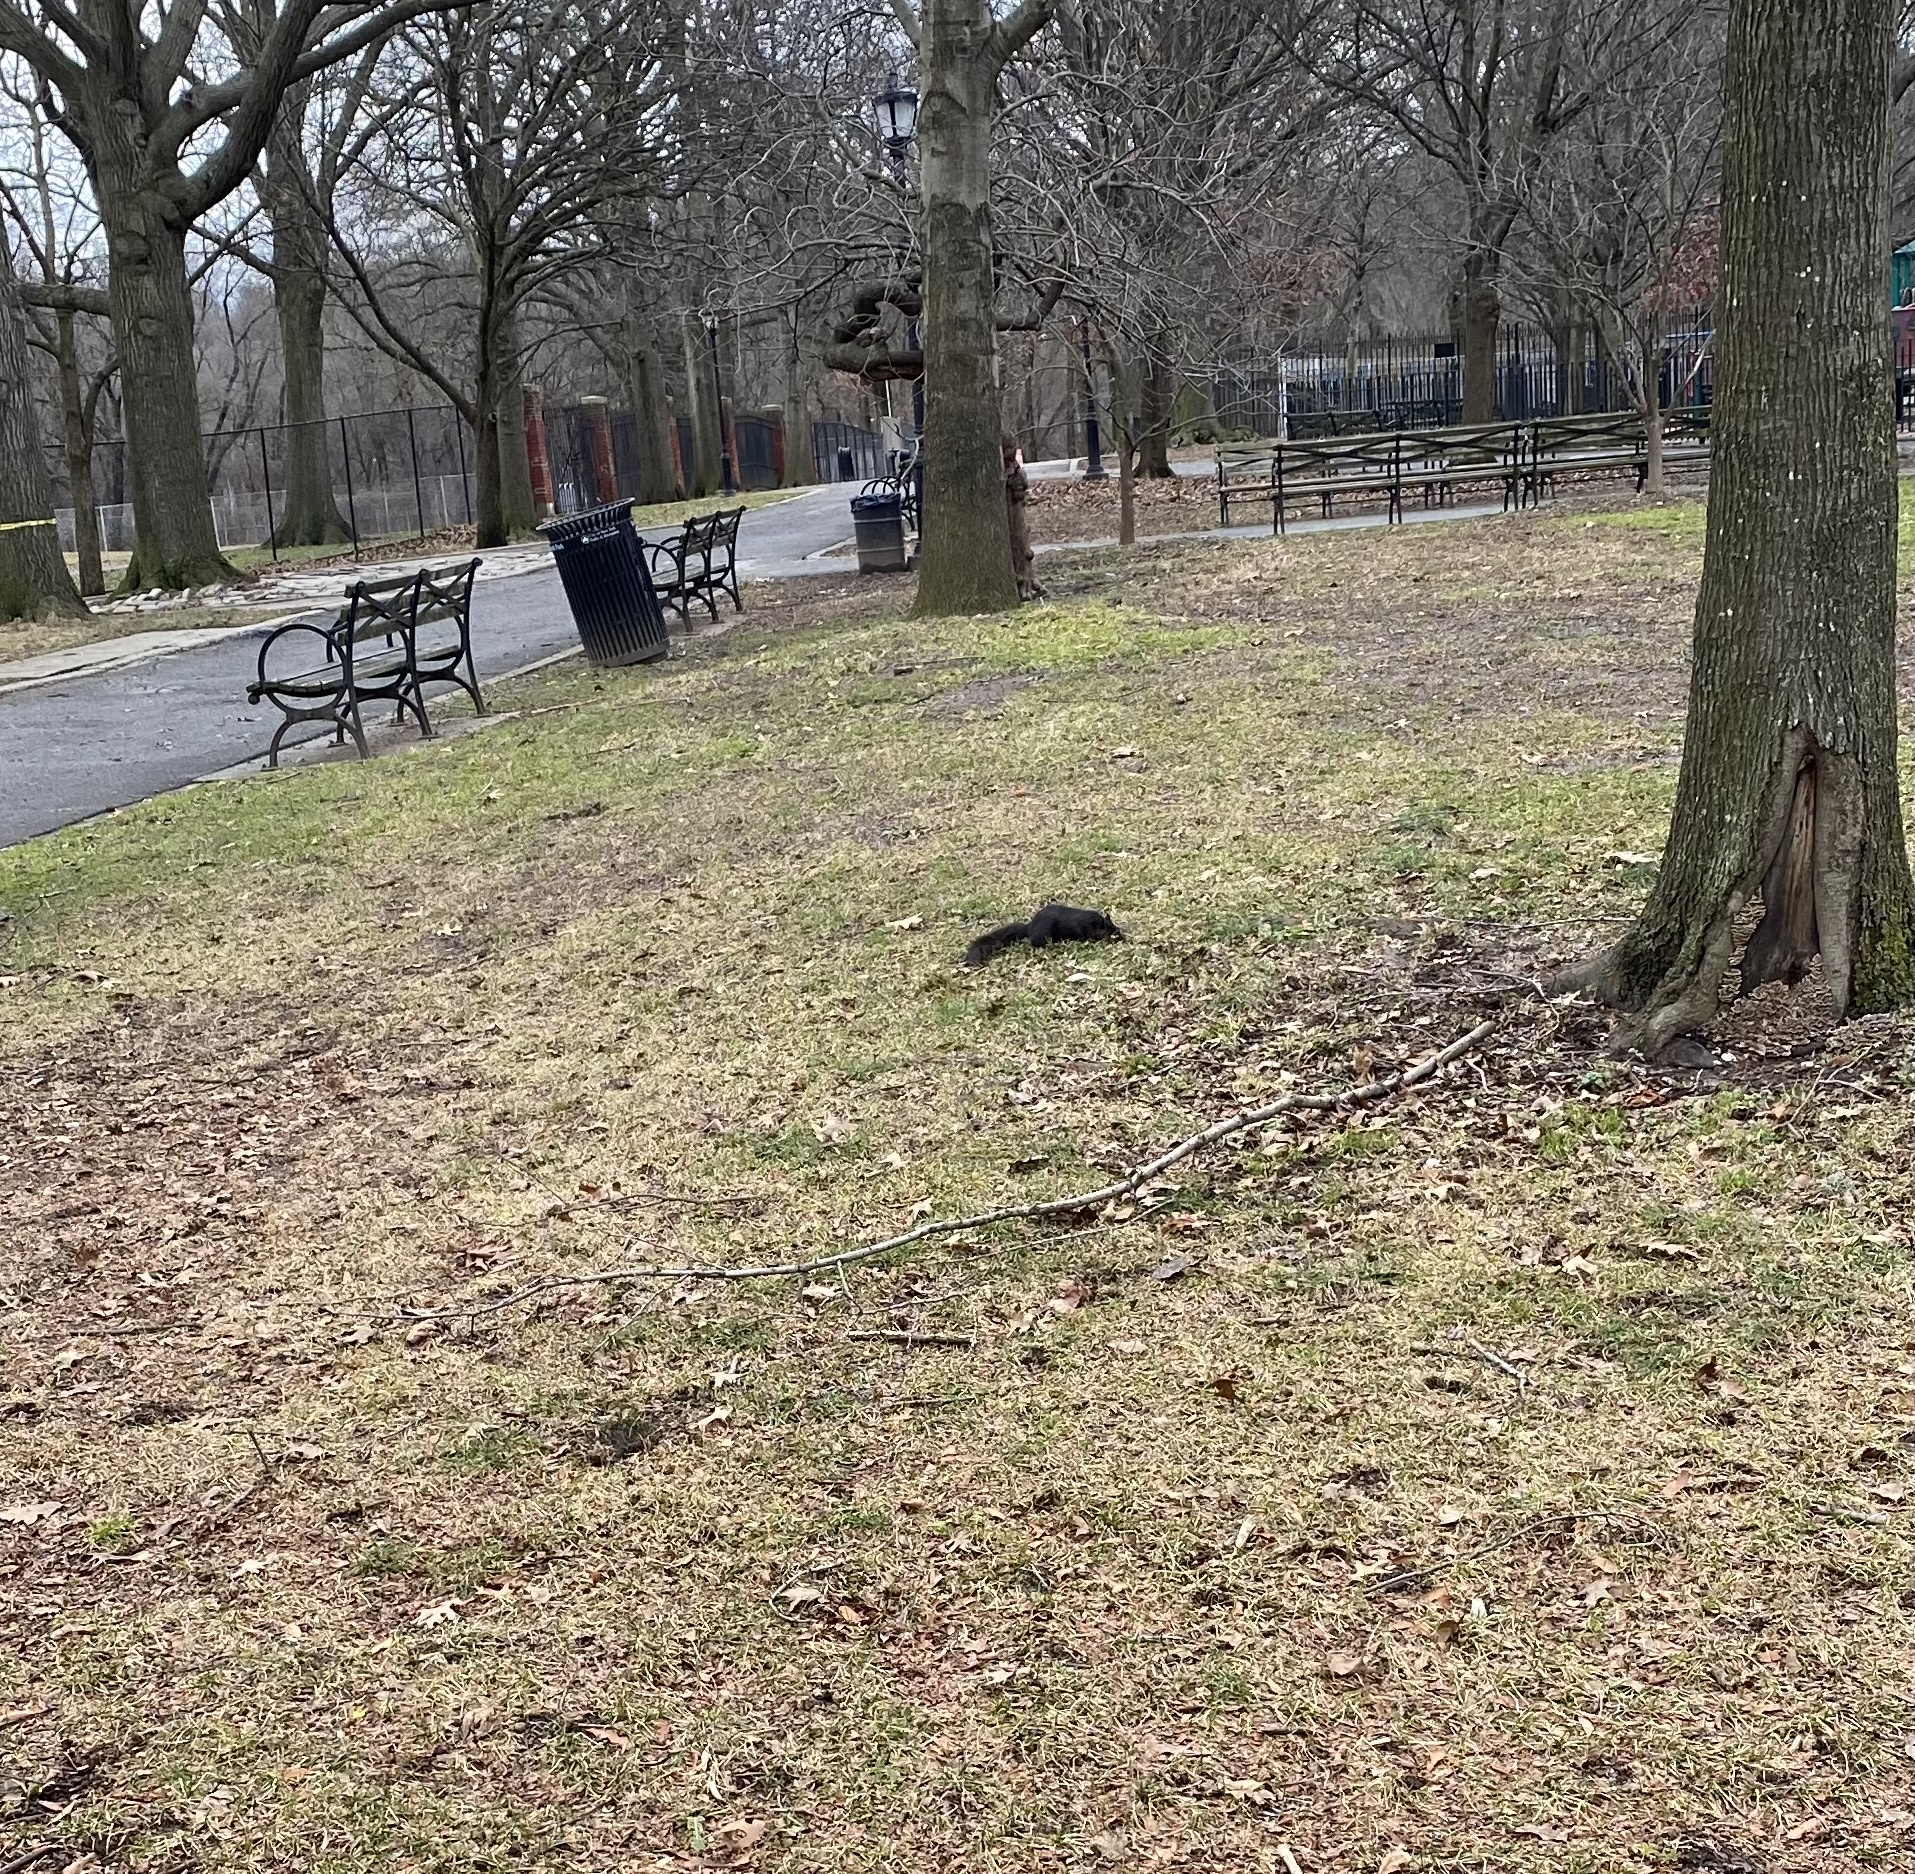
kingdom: Animalia
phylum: Chordata
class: Mammalia
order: Rodentia
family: Sciuridae
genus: Sciurus
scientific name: Sciurus carolinensis
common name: Eastern gray squirrel
